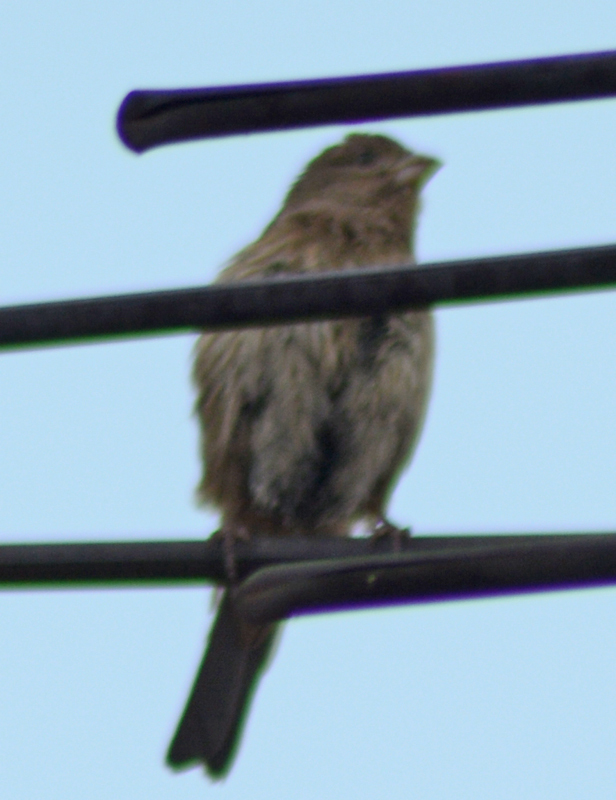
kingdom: Animalia
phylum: Chordata
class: Aves
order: Passeriformes
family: Fringillidae
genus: Haemorhous
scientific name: Haemorhous mexicanus
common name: House finch
